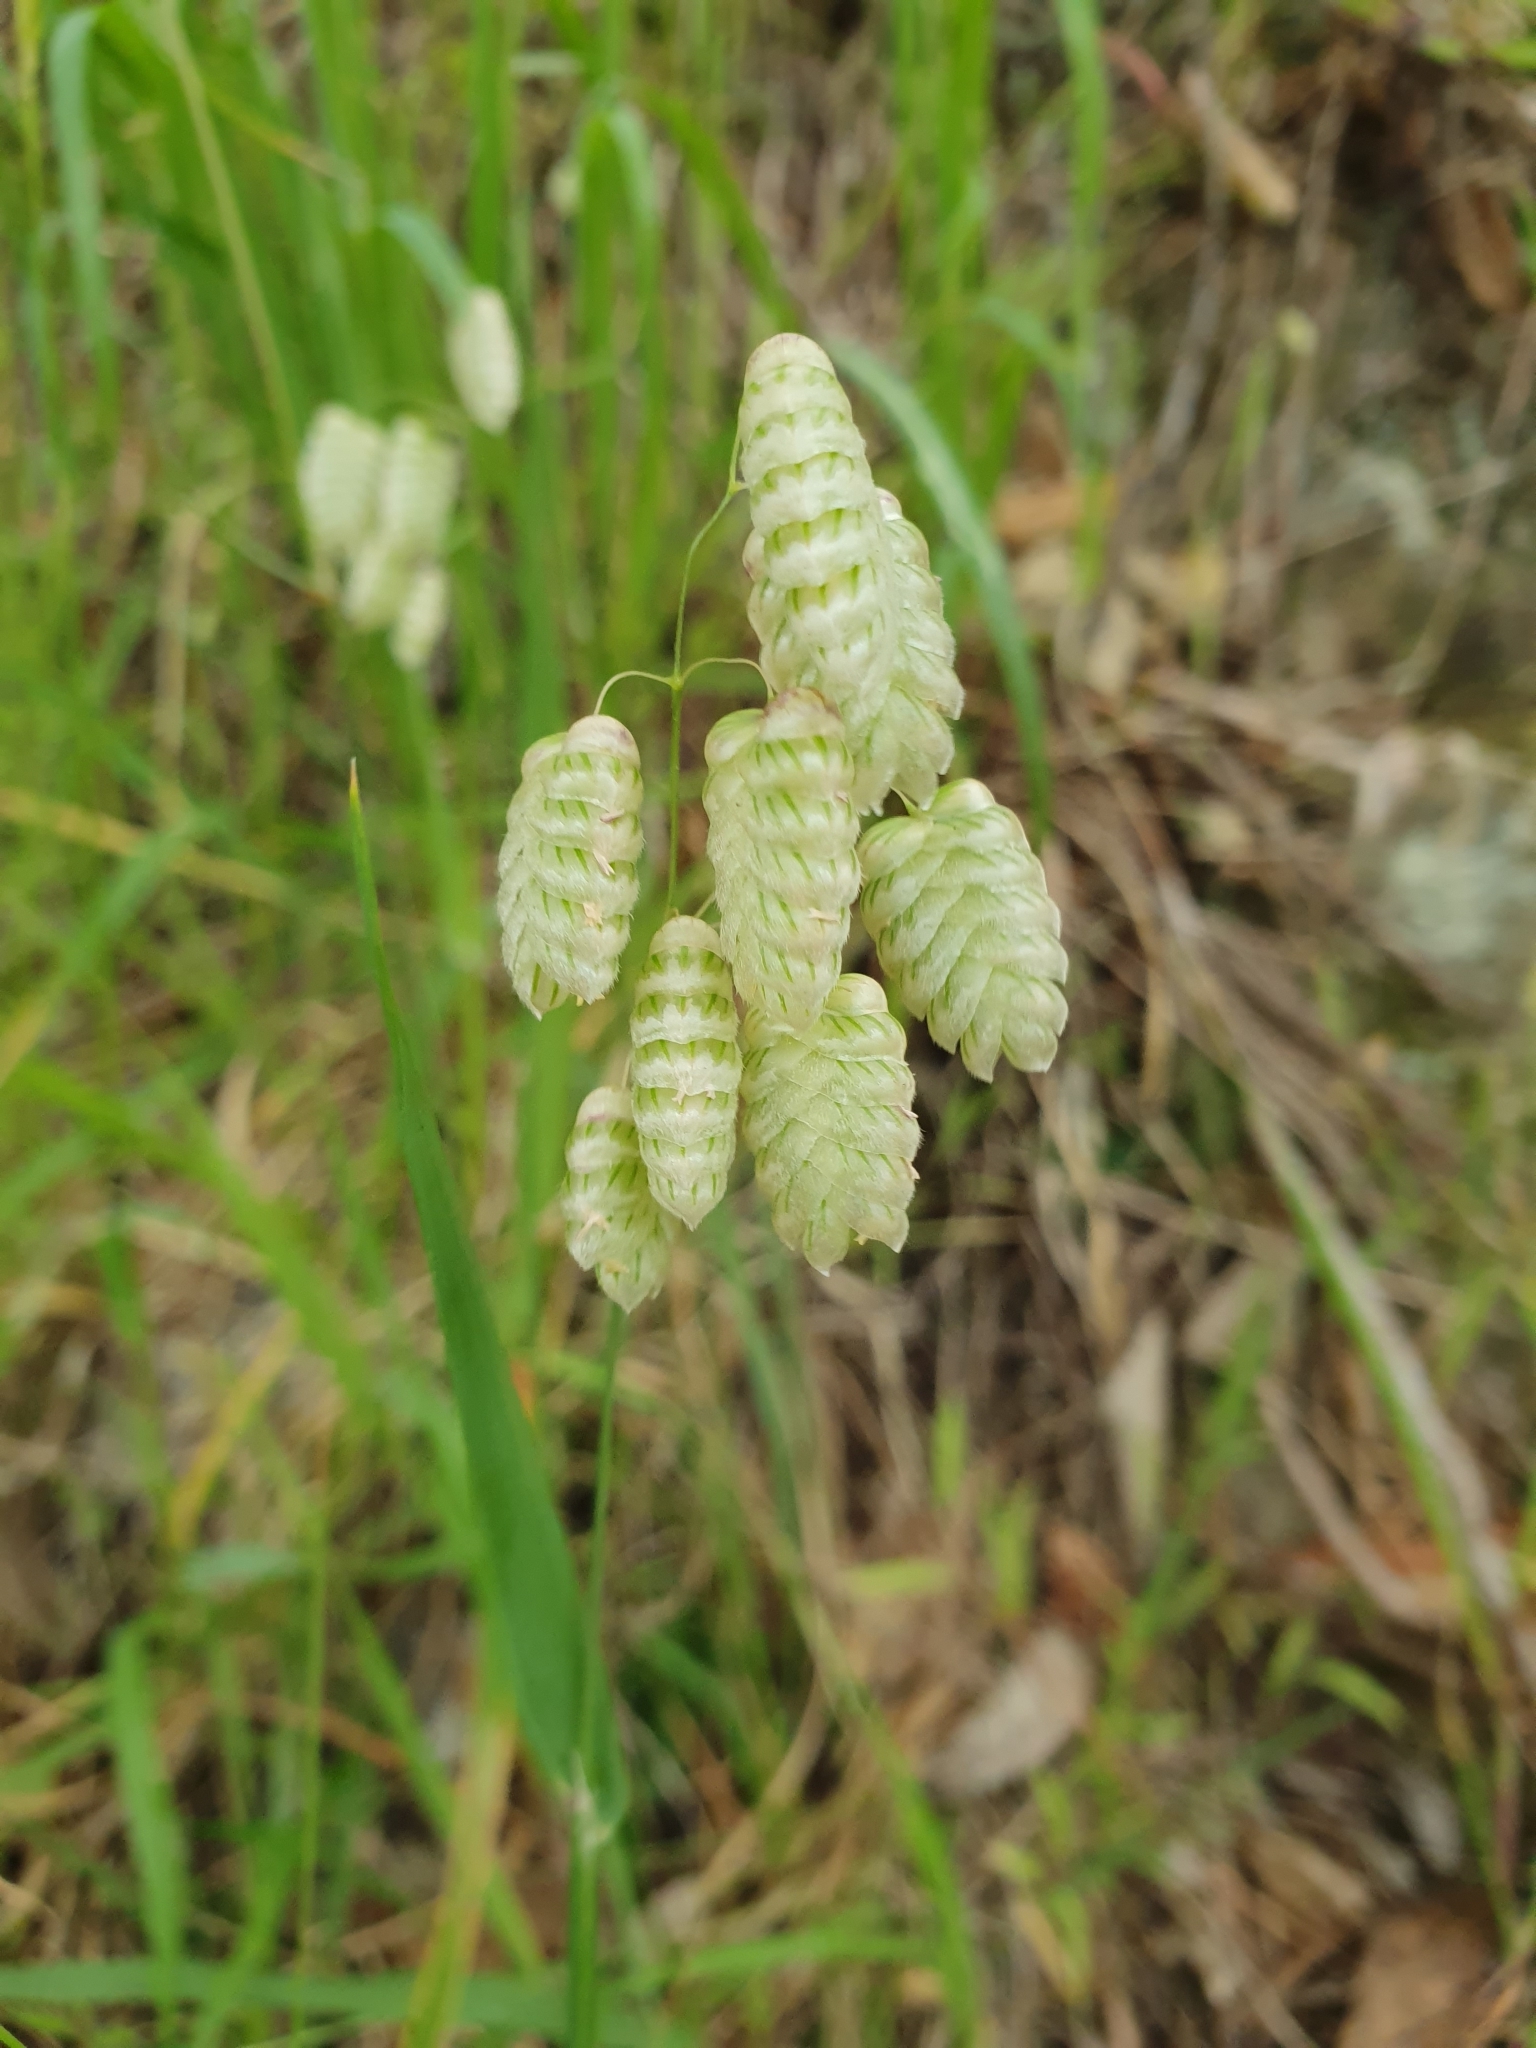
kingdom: Plantae
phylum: Tracheophyta
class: Liliopsida
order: Poales
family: Poaceae
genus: Briza
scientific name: Briza maxima
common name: Big quakinggrass
